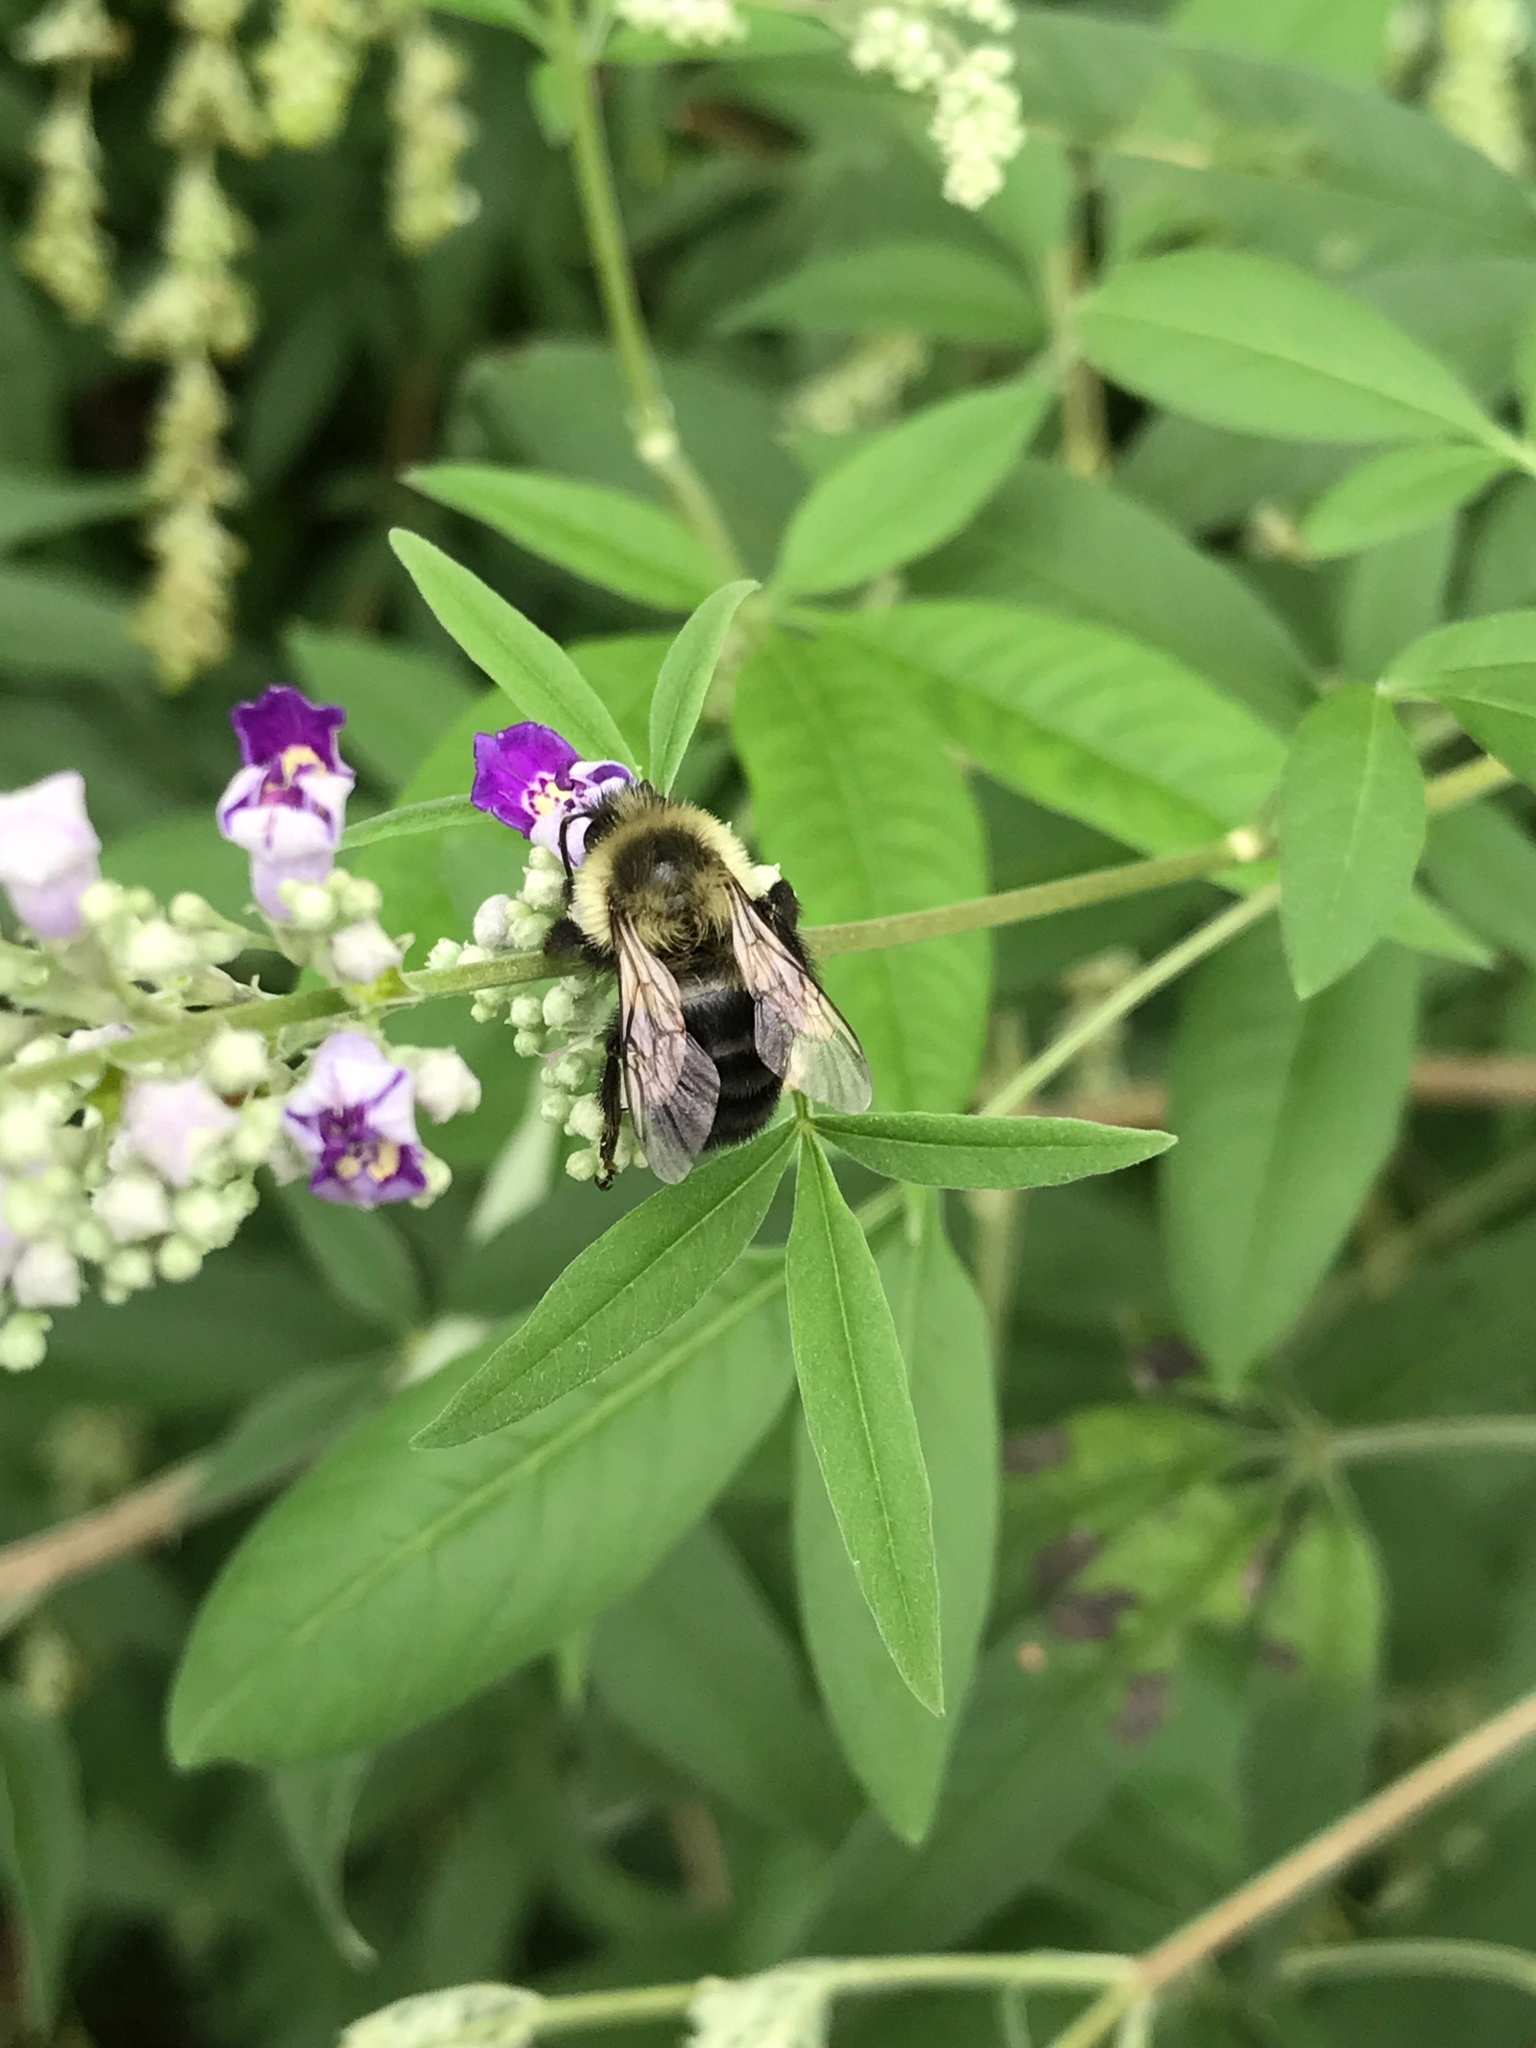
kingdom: Animalia
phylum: Arthropoda
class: Insecta
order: Hymenoptera
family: Apidae
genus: Bombus
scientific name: Bombus impatiens
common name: Common eastern bumble bee
